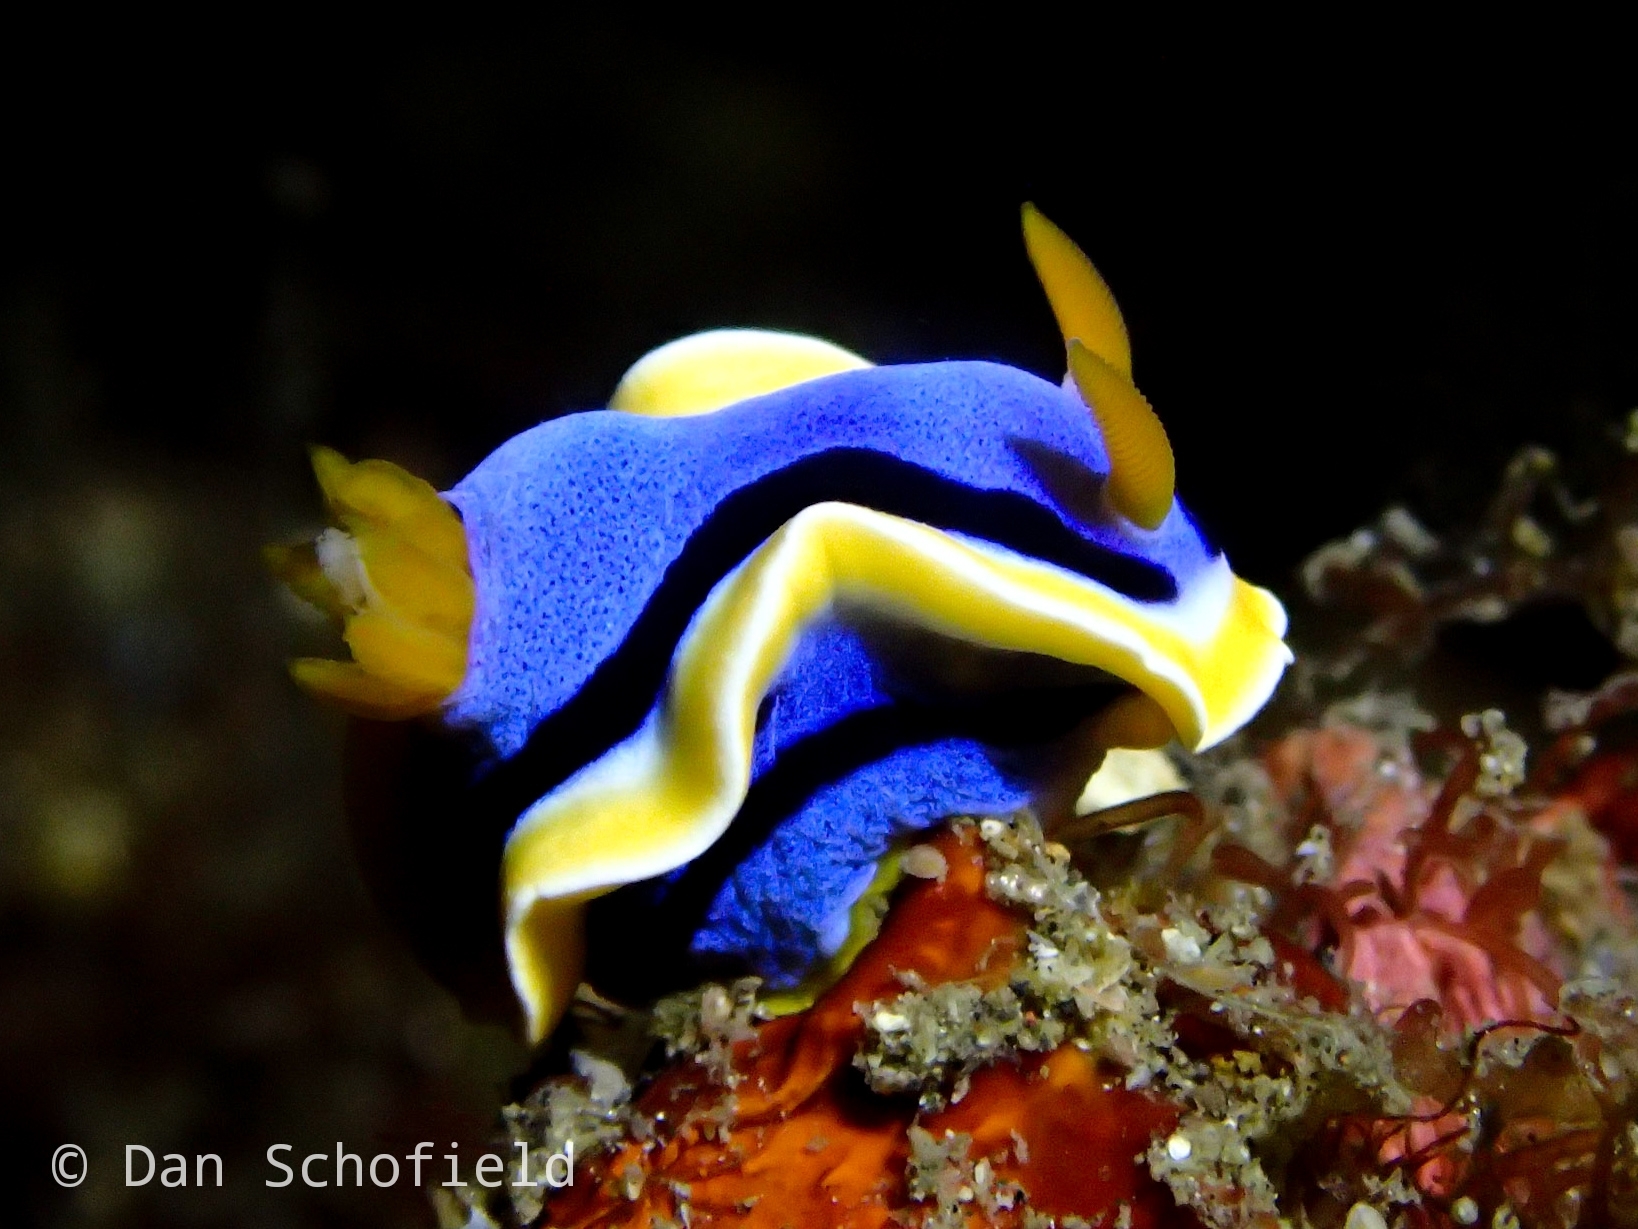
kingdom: Animalia
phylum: Mollusca
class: Gastropoda
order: Nudibranchia
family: Chromodorididae
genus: Chromodoris
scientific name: Chromodoris annae
